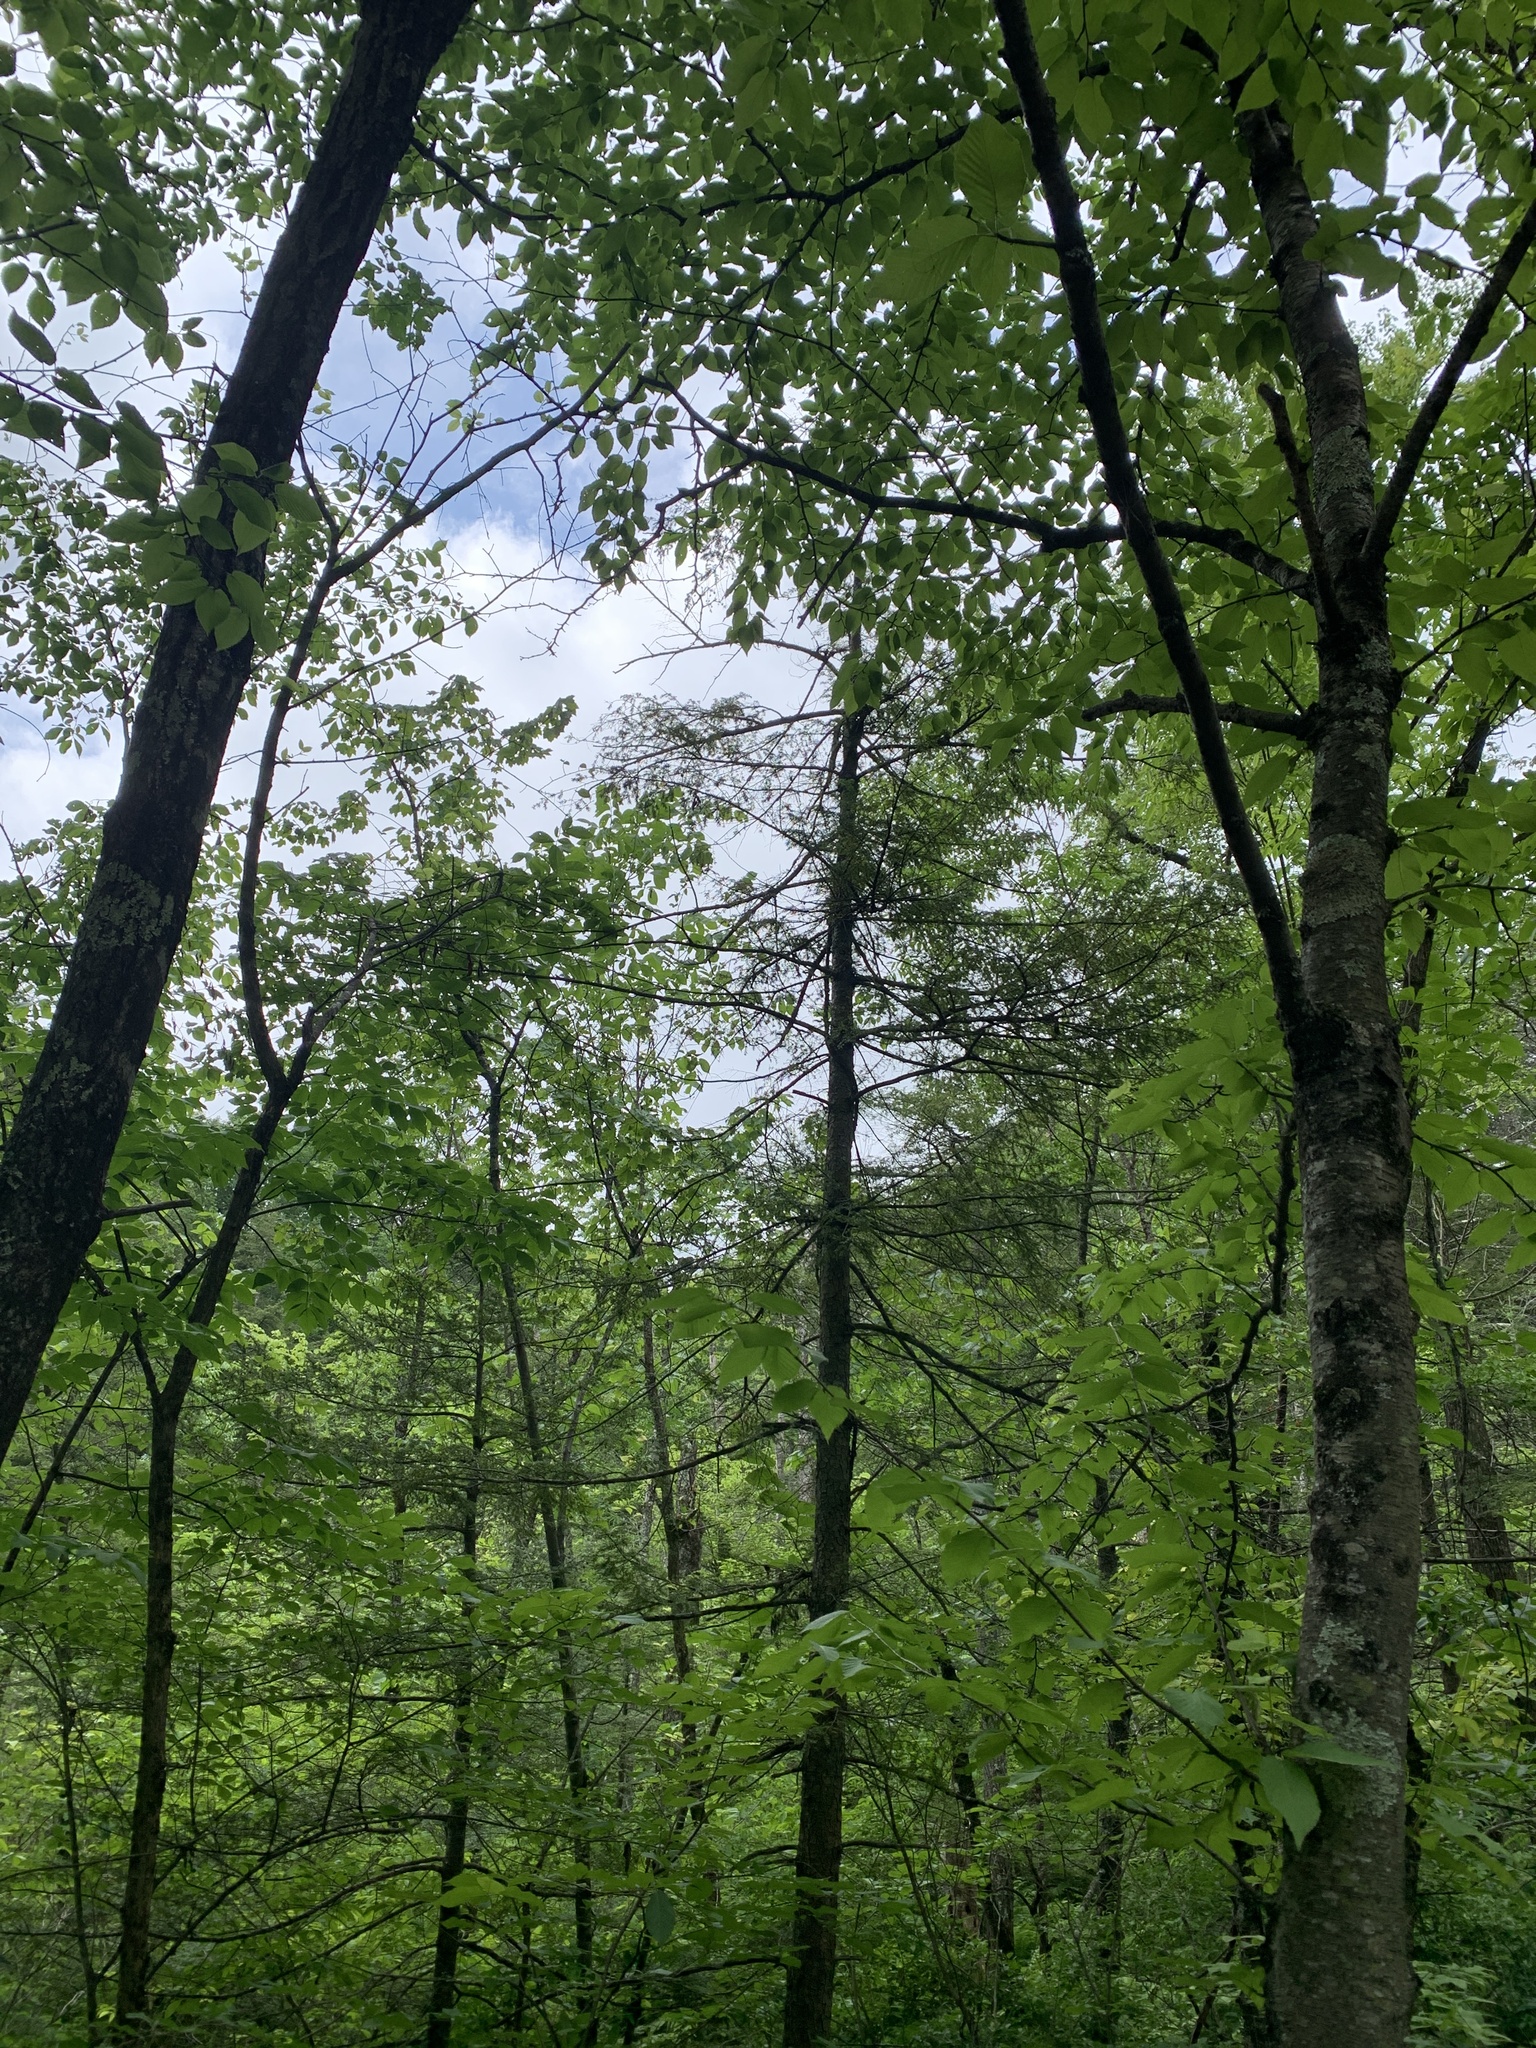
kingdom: Plantae
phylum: Tracheophyta
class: Pinopsida
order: Pinales
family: Pinaceae
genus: Tsuga
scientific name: Tsuga canadensis
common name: Eastern hemlock
